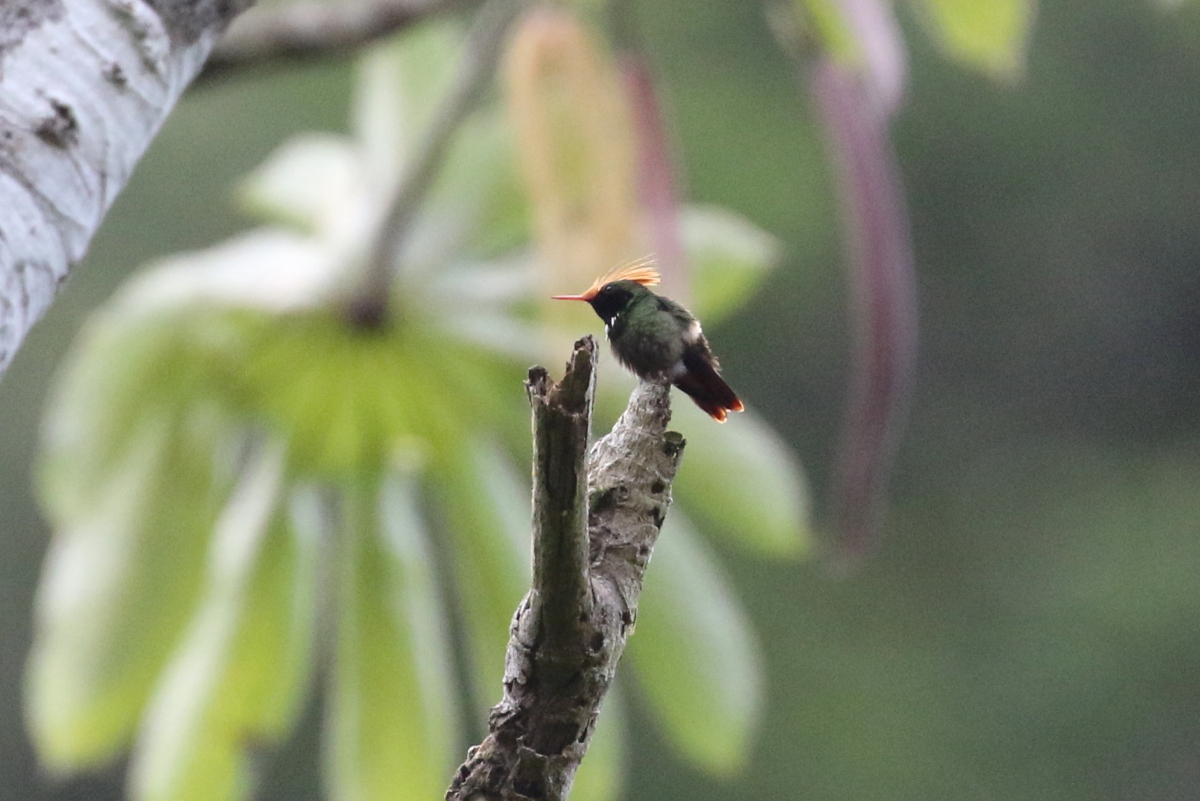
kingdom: Animalia
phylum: Chordata
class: Aves
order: Apodiformes
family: Trochilidae
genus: Lophornis
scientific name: Lophornis delattrei
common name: Rufous-crested coquette
